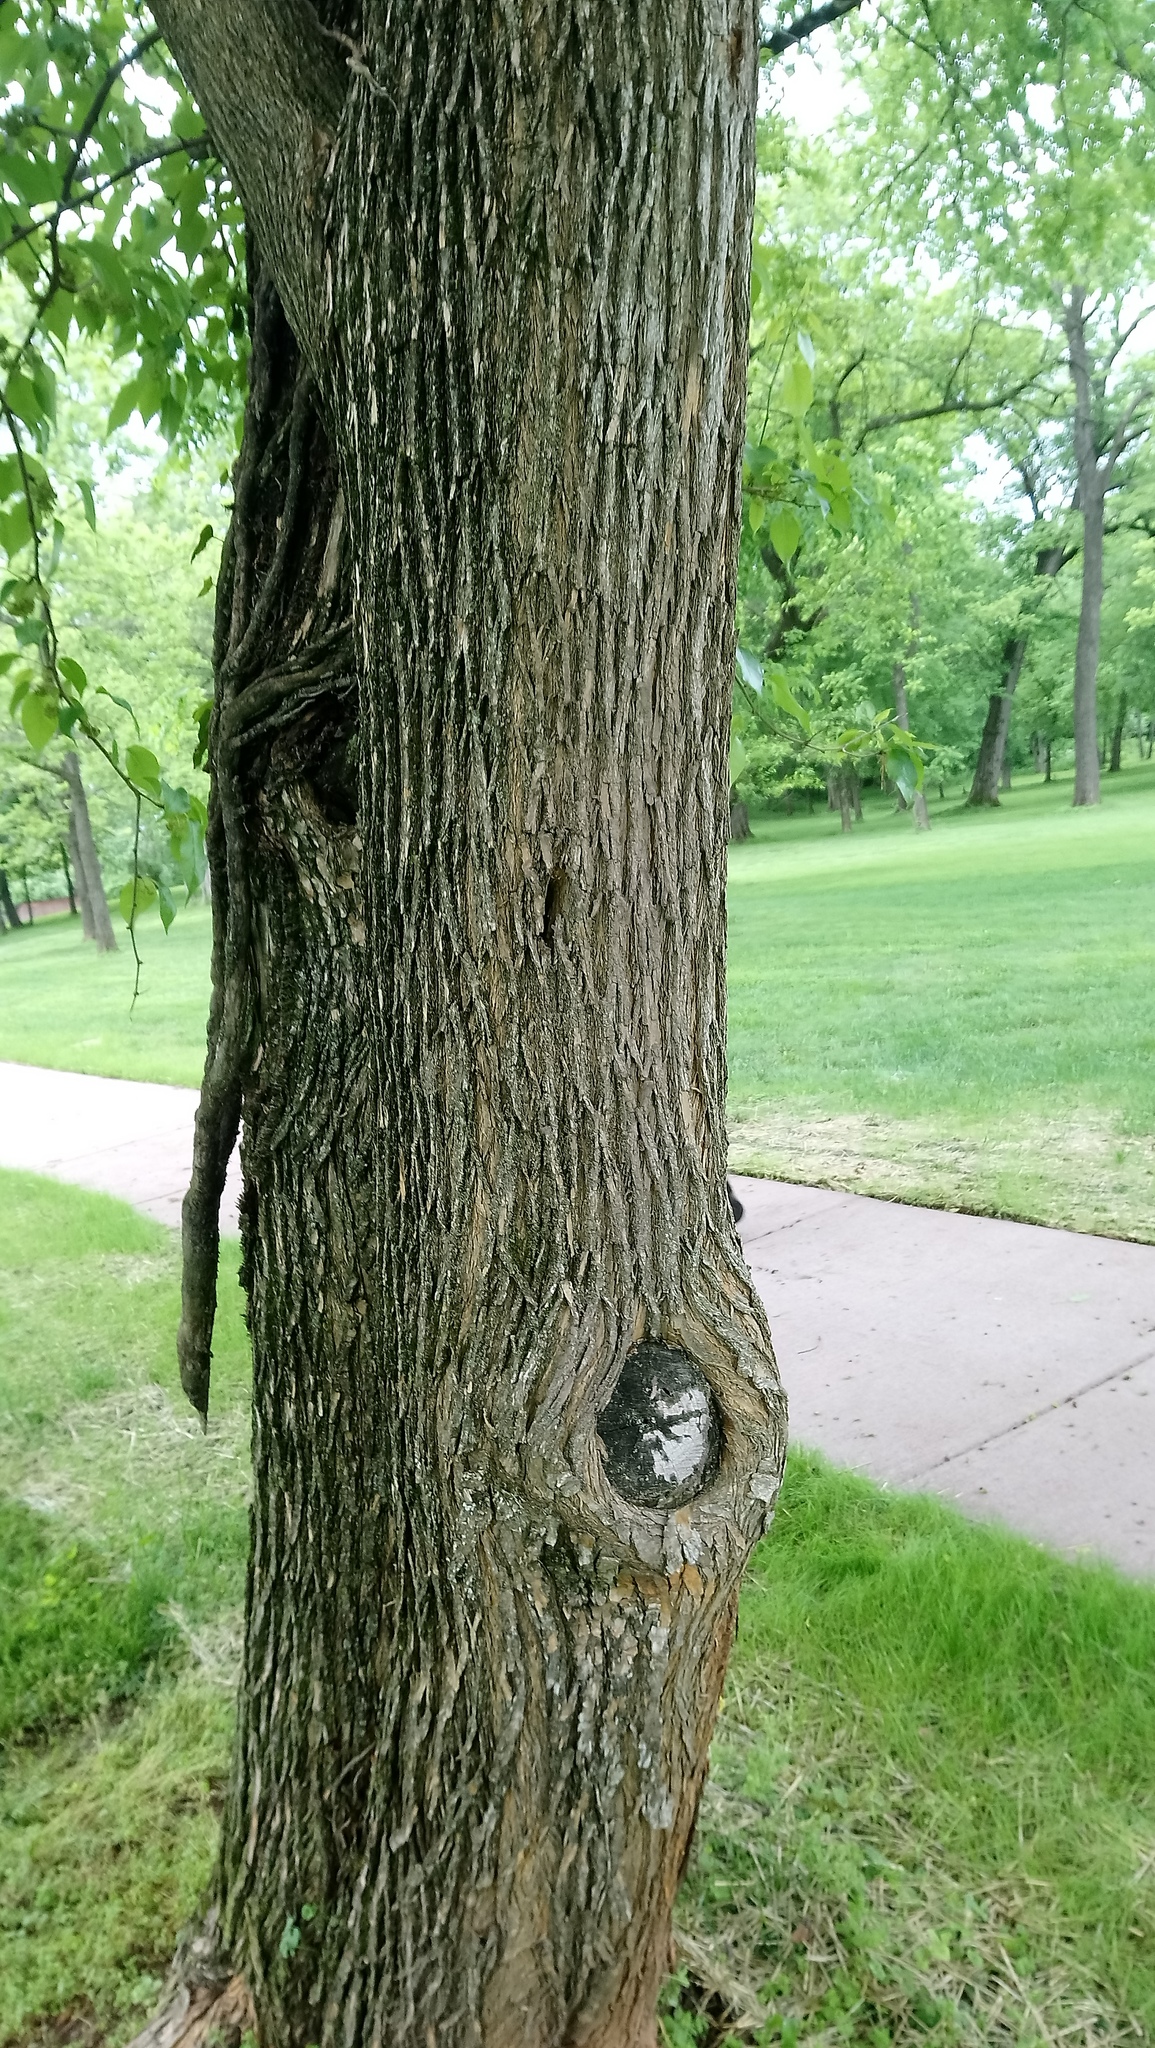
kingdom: Plantae
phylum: Tracheophyta
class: Magnoliopsida
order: Rosales
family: Moraceae
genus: Maclura
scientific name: Maclura pomifera
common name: Osage-orange
